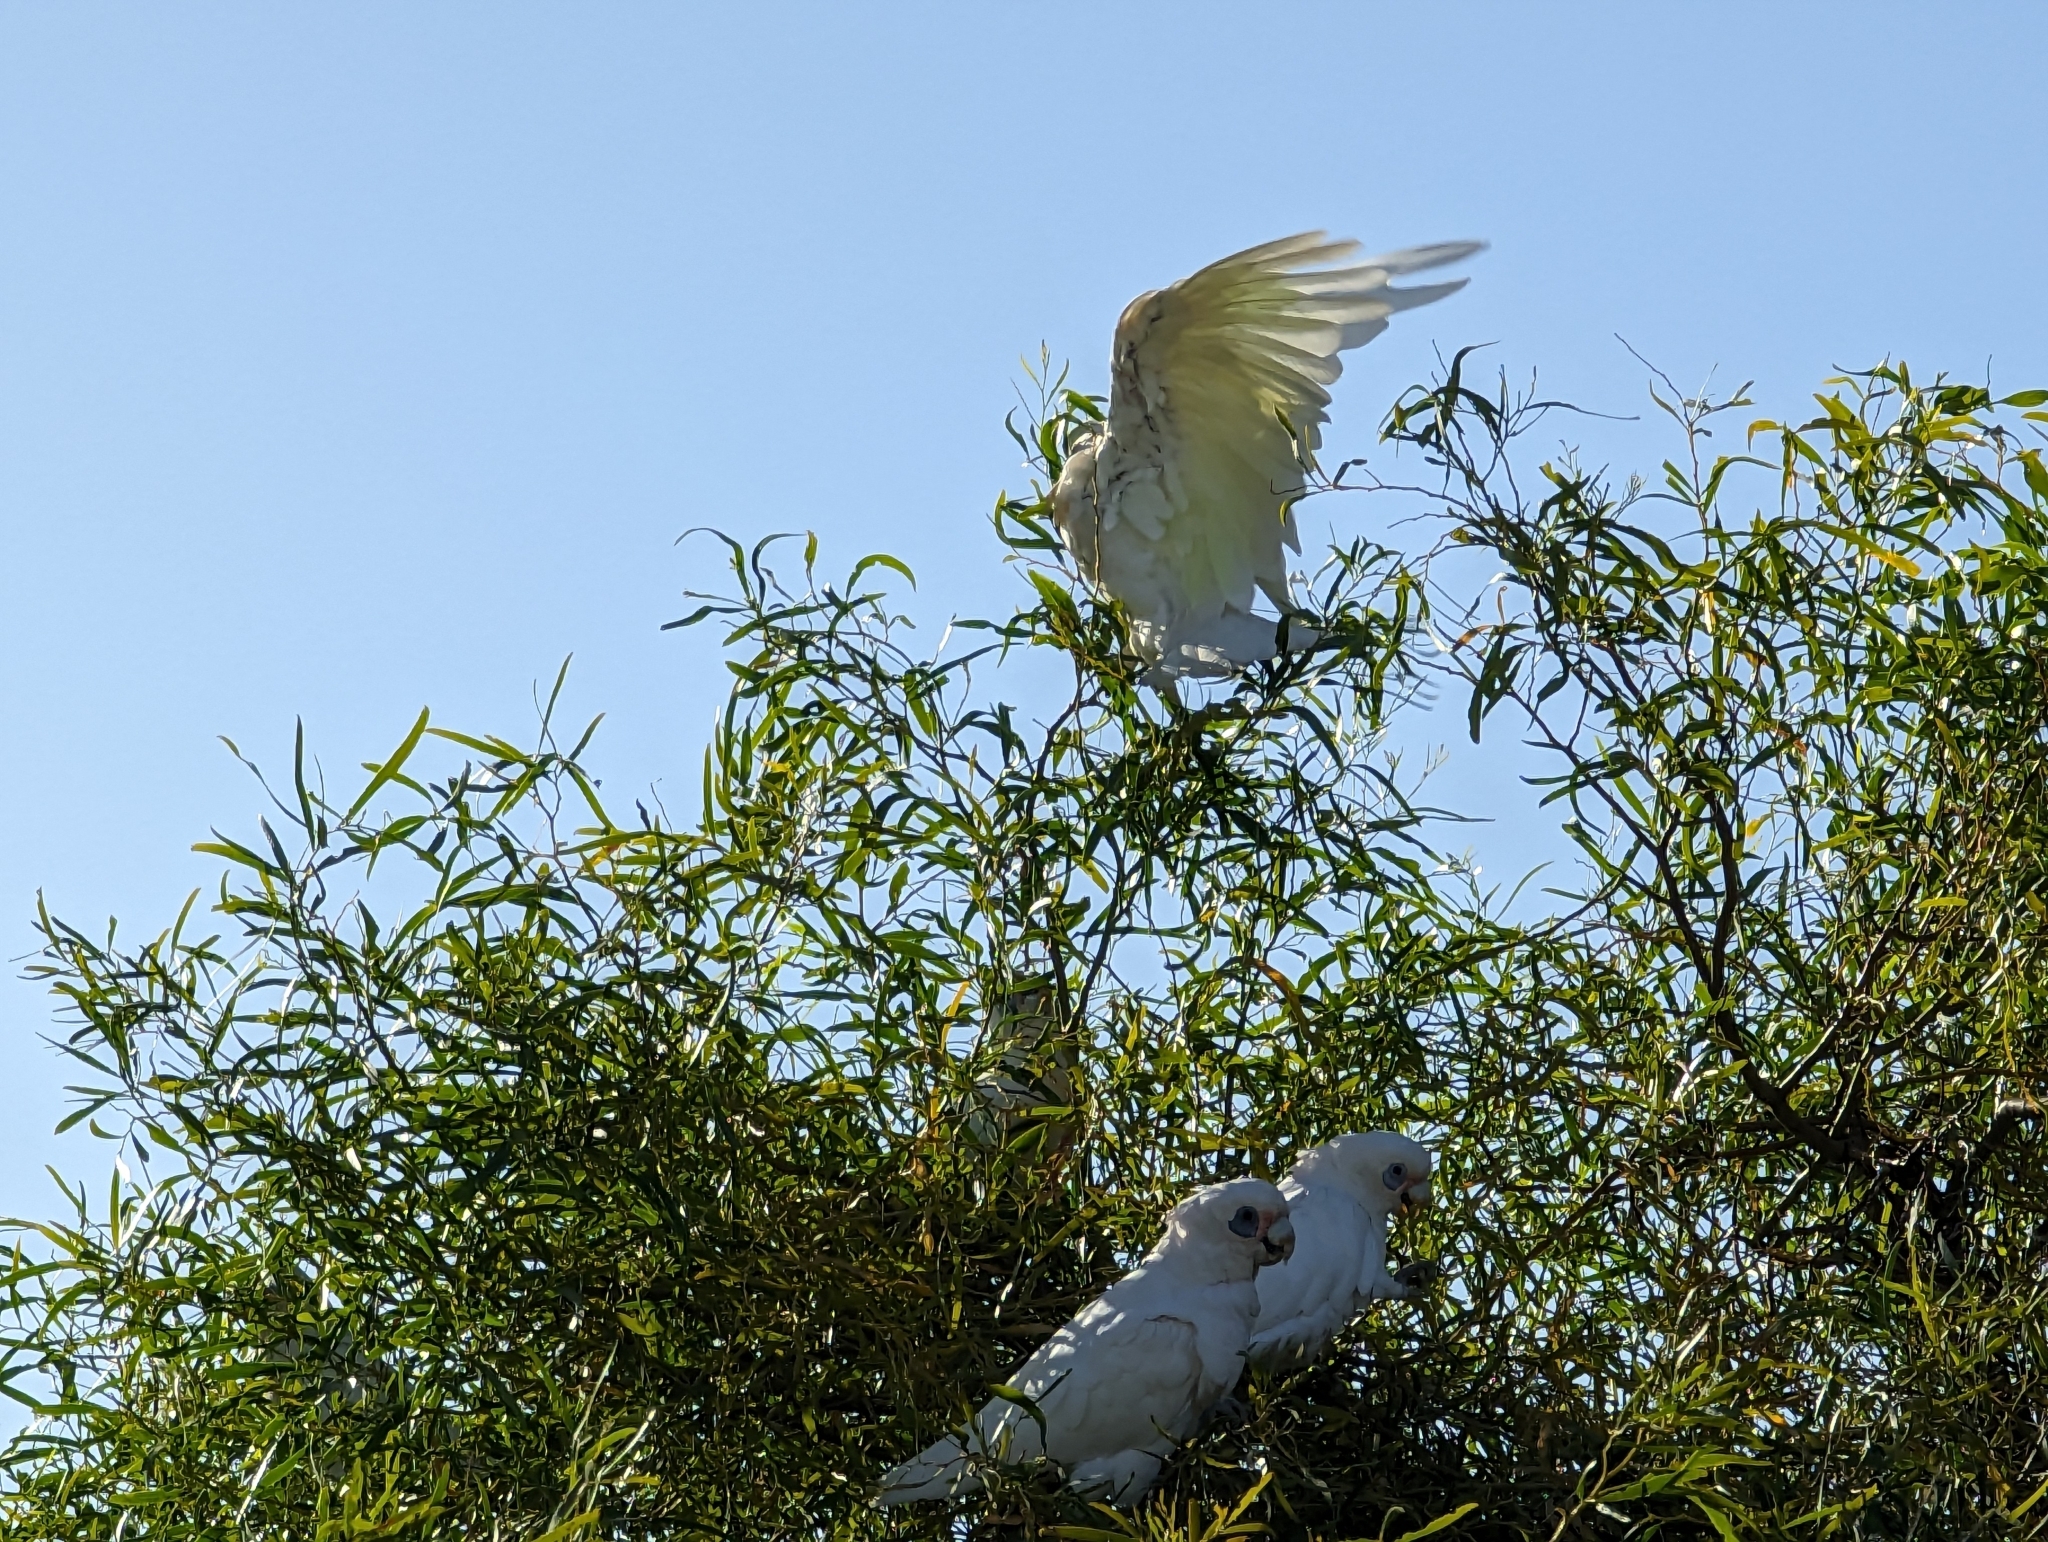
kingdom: Animalia
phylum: Chordata
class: Aves
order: Psittaciformes
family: Psittacidae
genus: Cacatua
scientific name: Cacatua sanguinea
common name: Little corella
